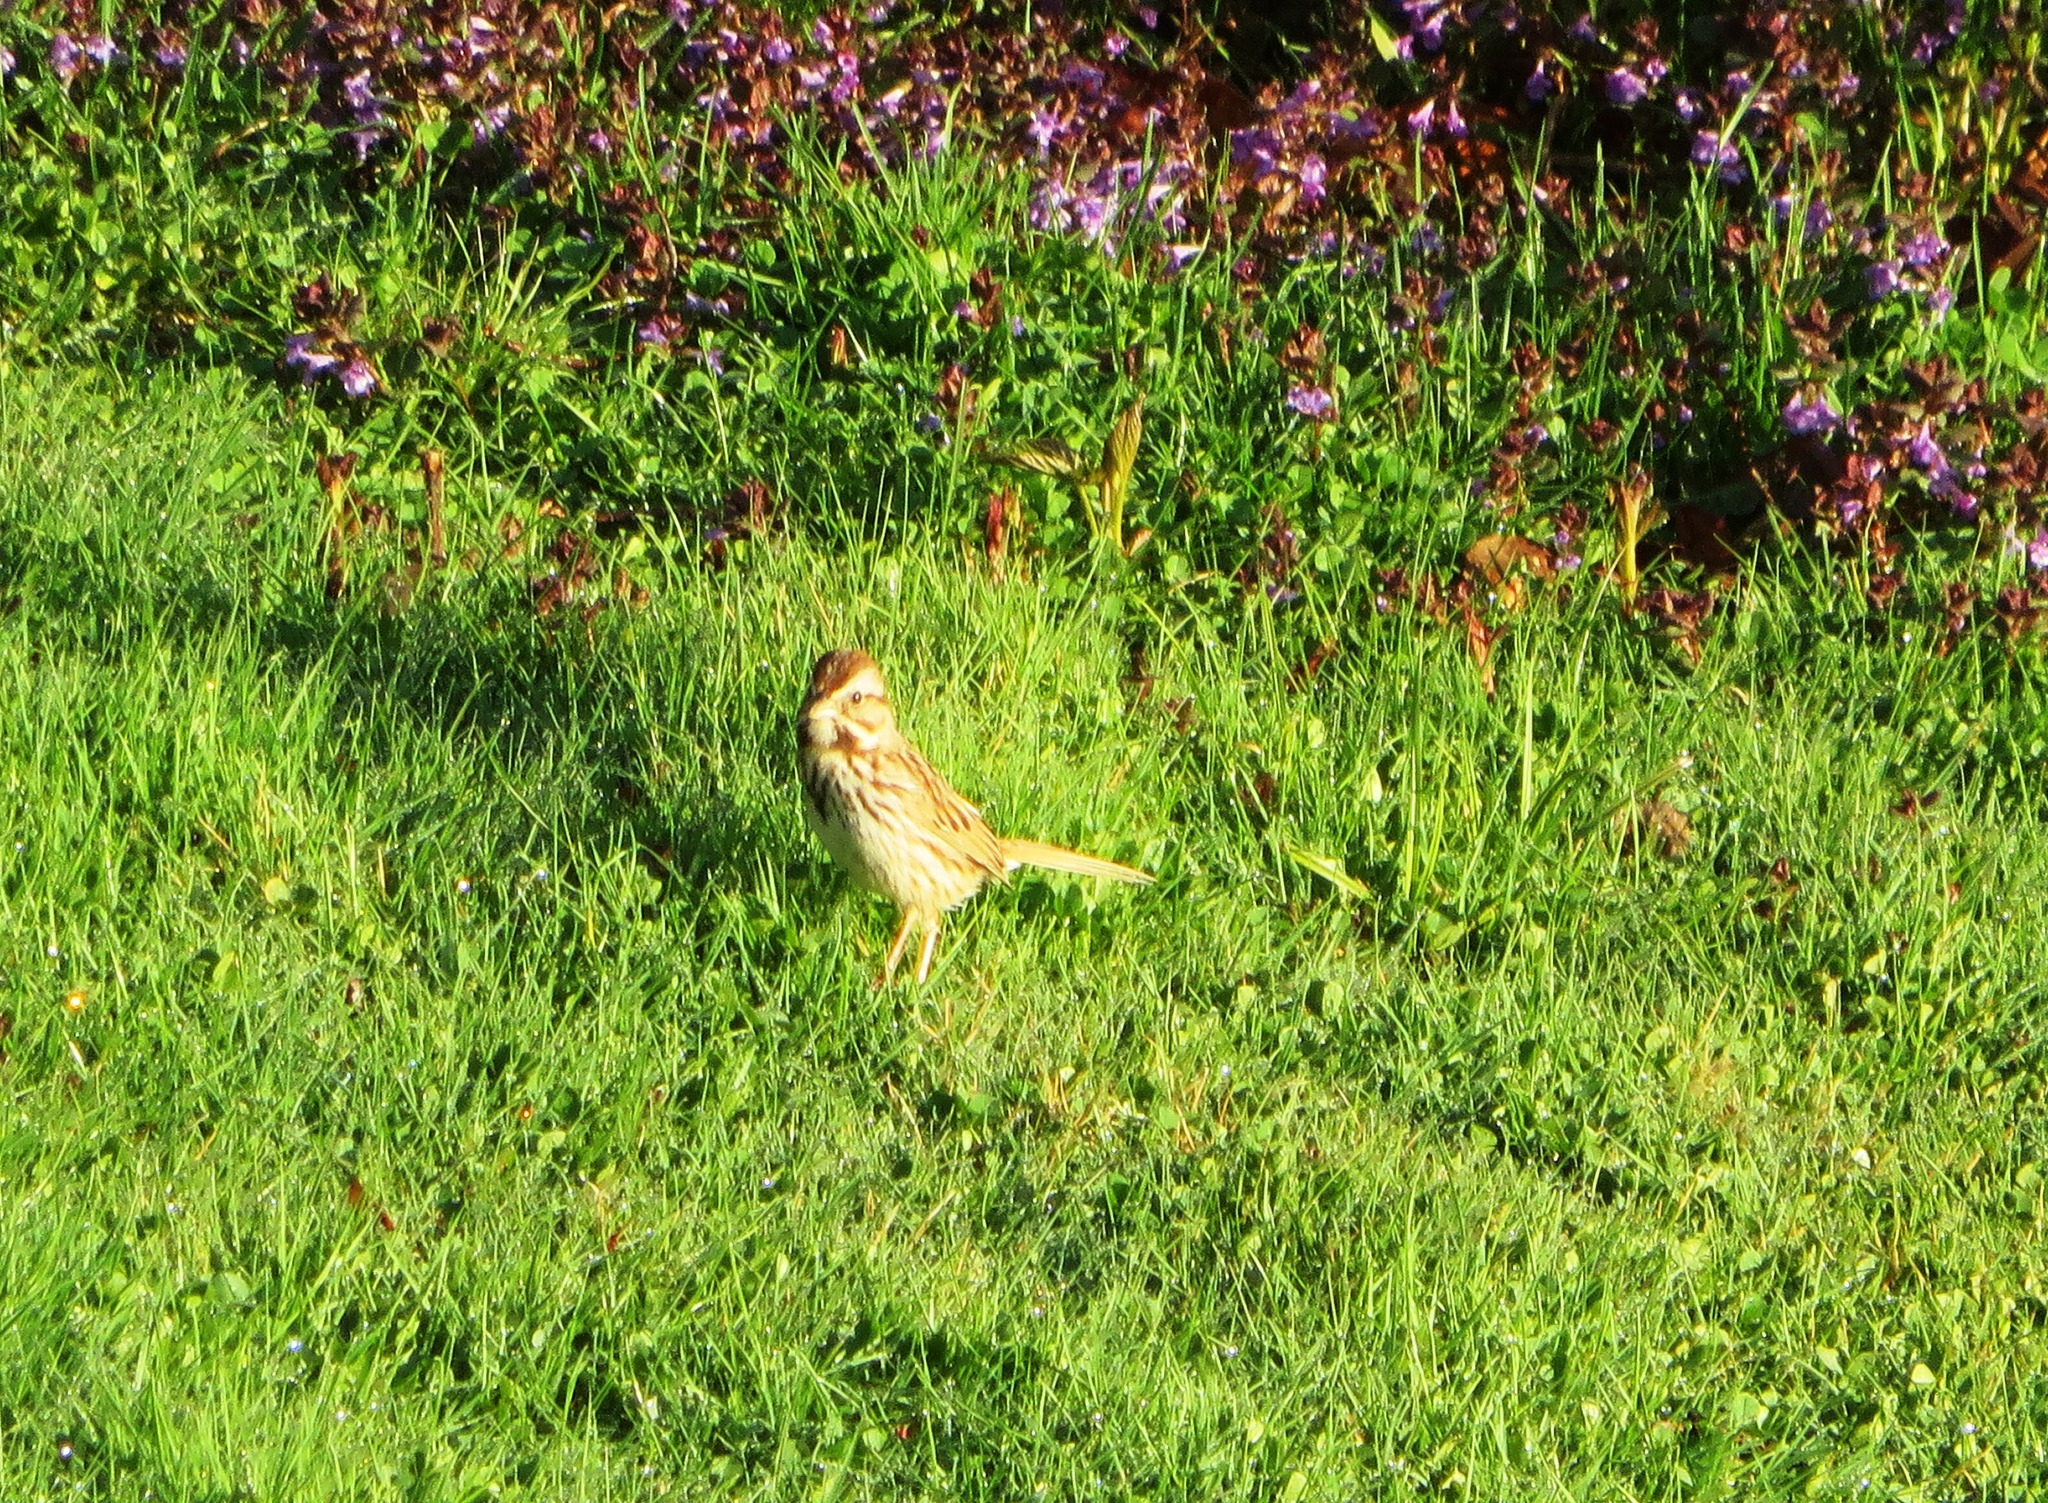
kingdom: Animalia
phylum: Chordata
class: Aves
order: Passeriformes
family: Passerellidae
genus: Melospiza
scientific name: Melospiza melodia
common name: Song sparrow
